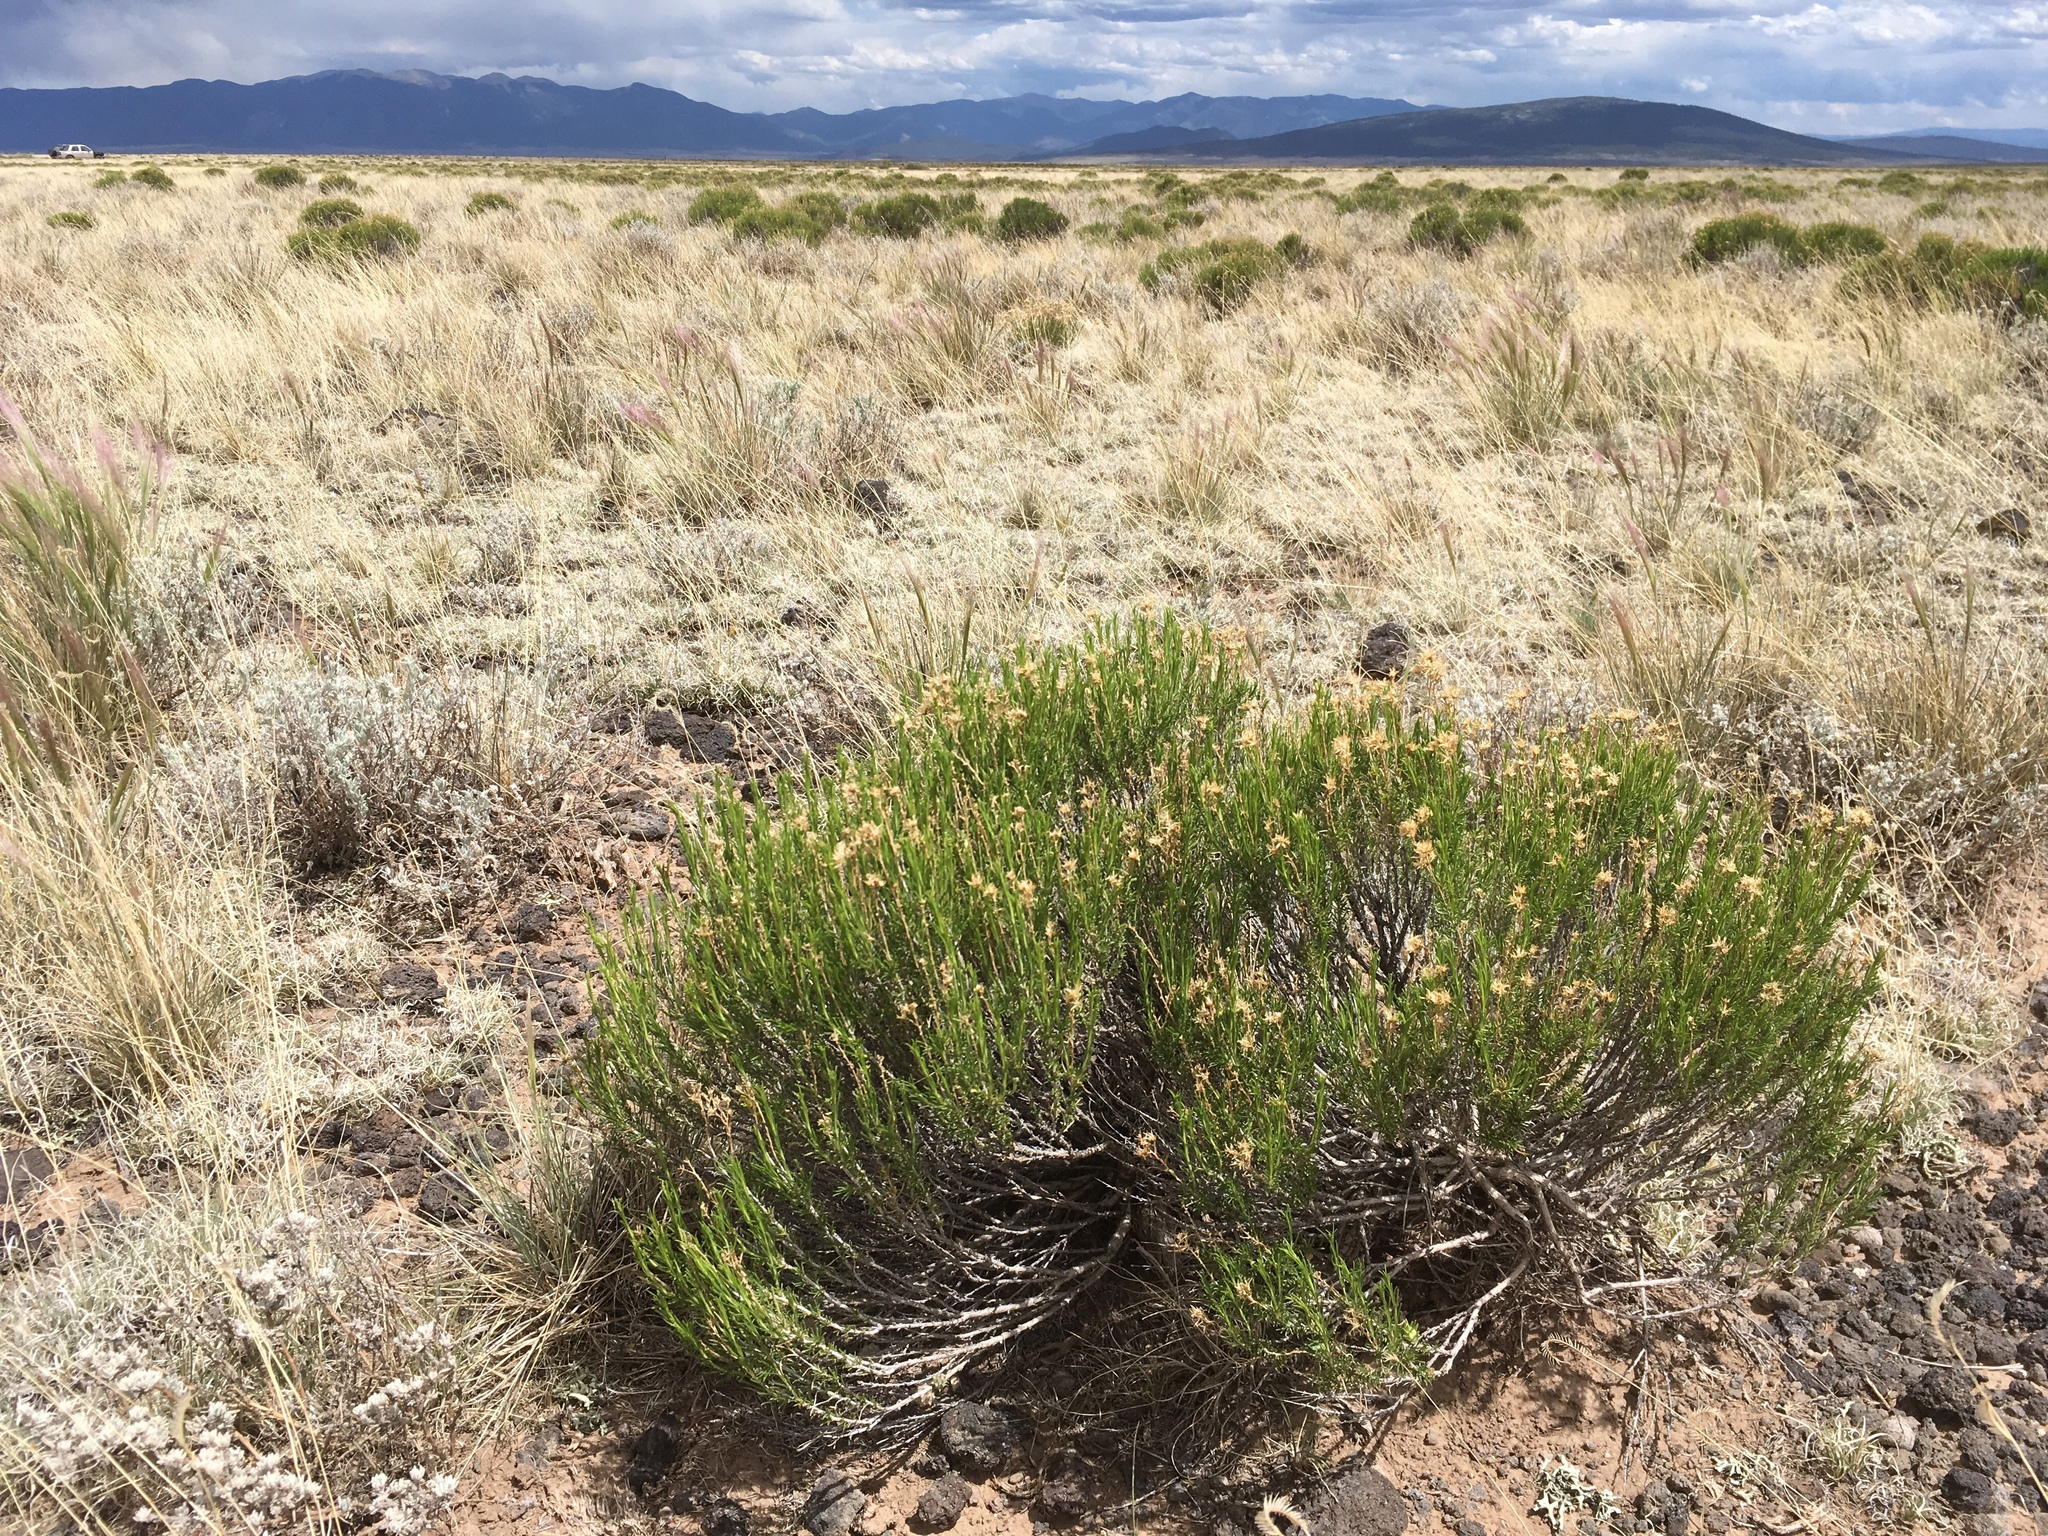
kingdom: Plantae
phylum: Tracheophyta
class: Magnoliopsida
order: Asterales
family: Asteraceae
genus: Chrysothamnus
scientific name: Chrysothamnus greenei
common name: Greene's rabbitbrush
